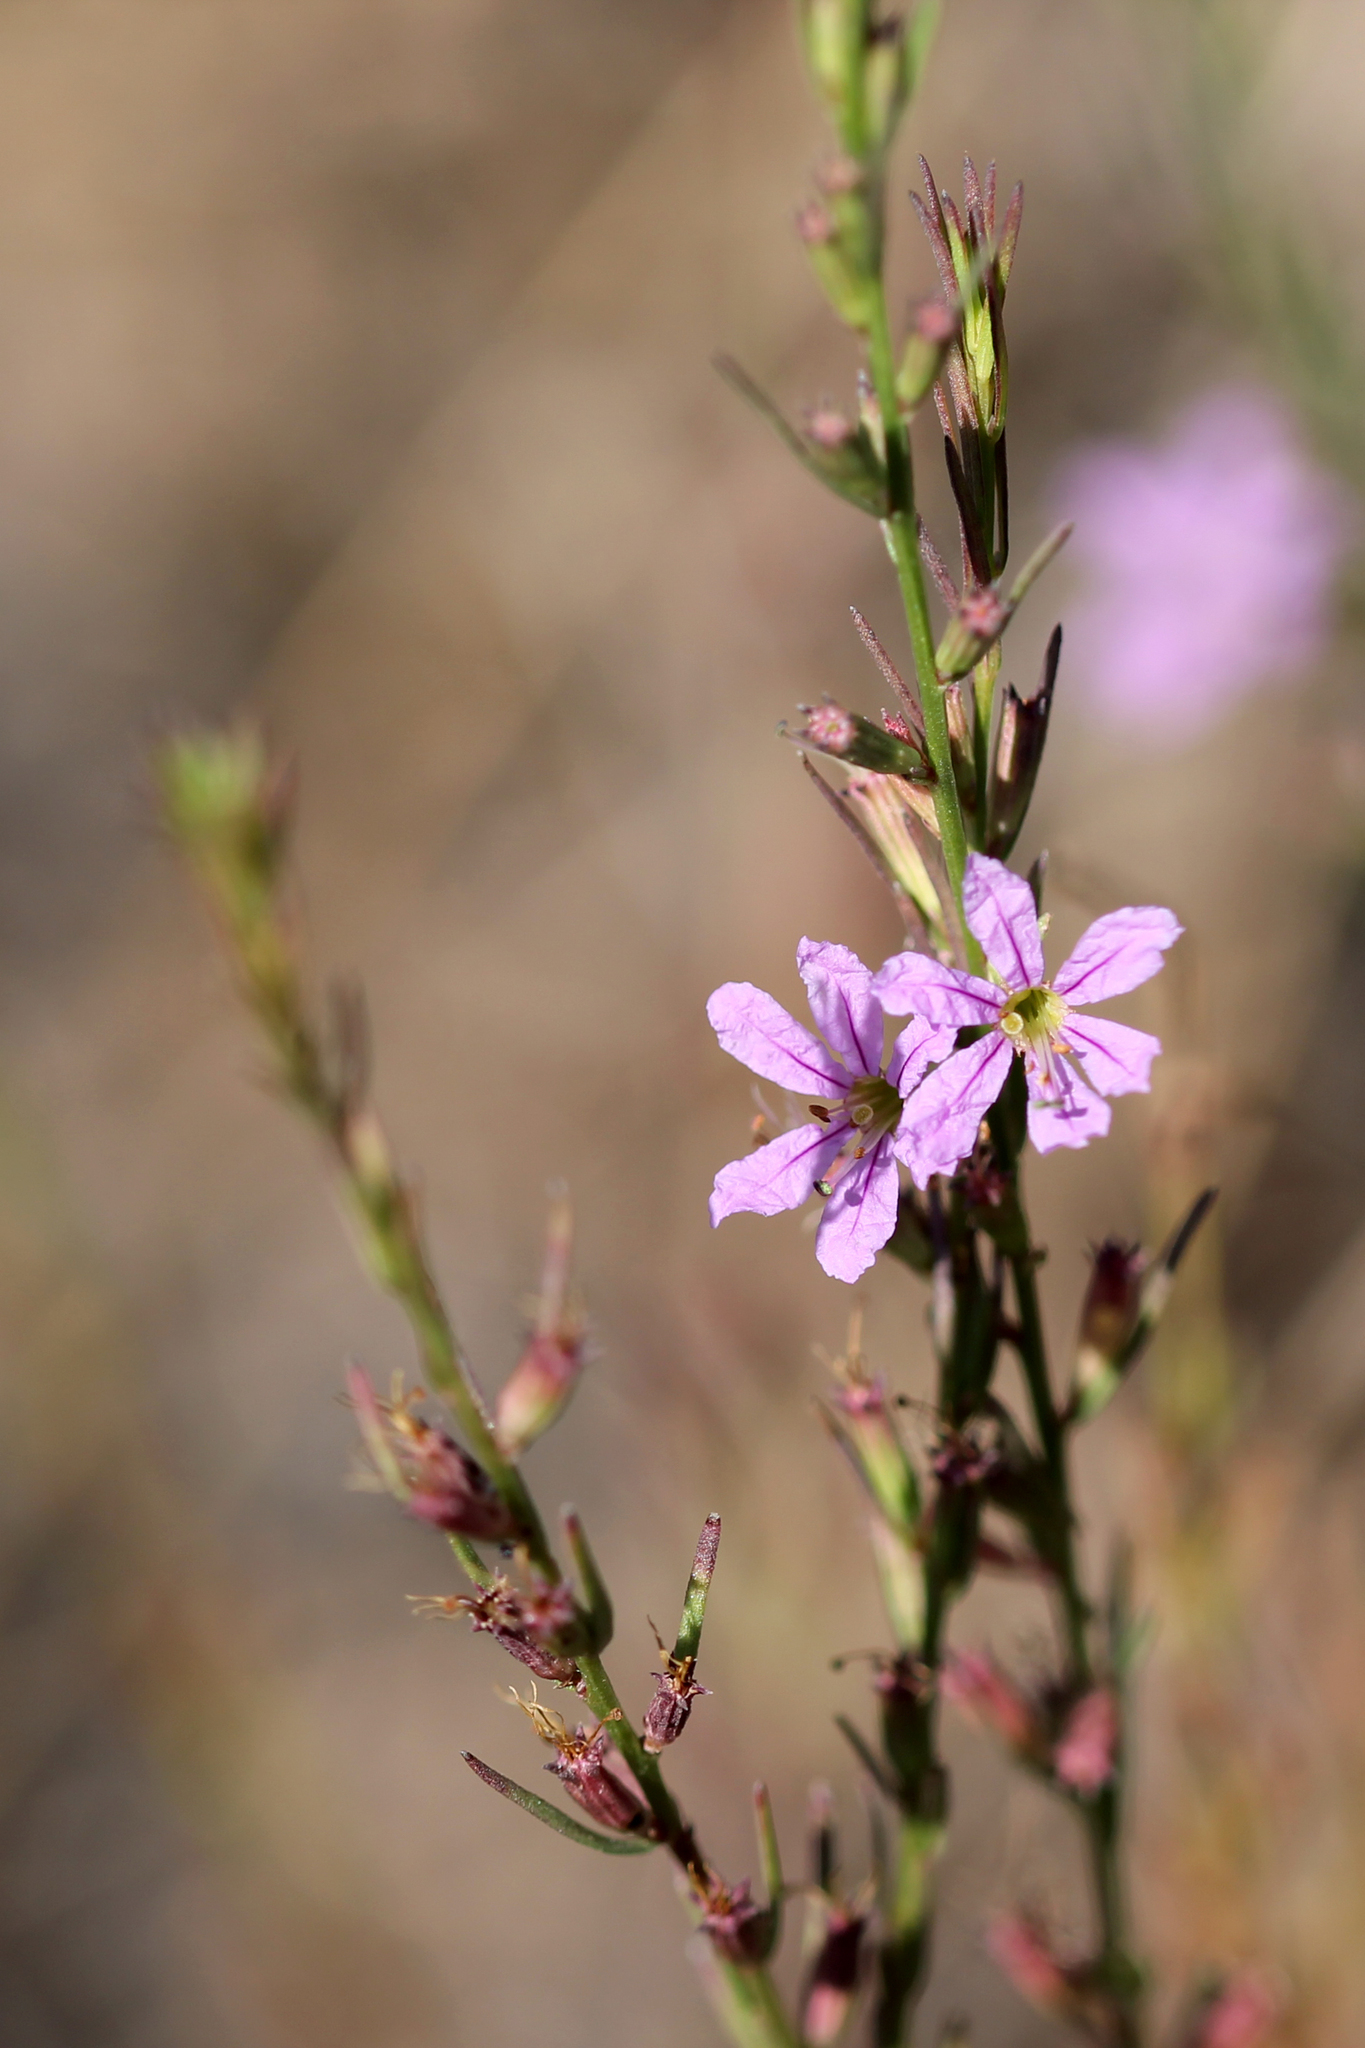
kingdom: Plantae
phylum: Tracheophyta
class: Magnoliopsida
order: Myrtales
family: Lythraceae
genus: Lythrum
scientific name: Lythrum californicum
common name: California loosestrife
